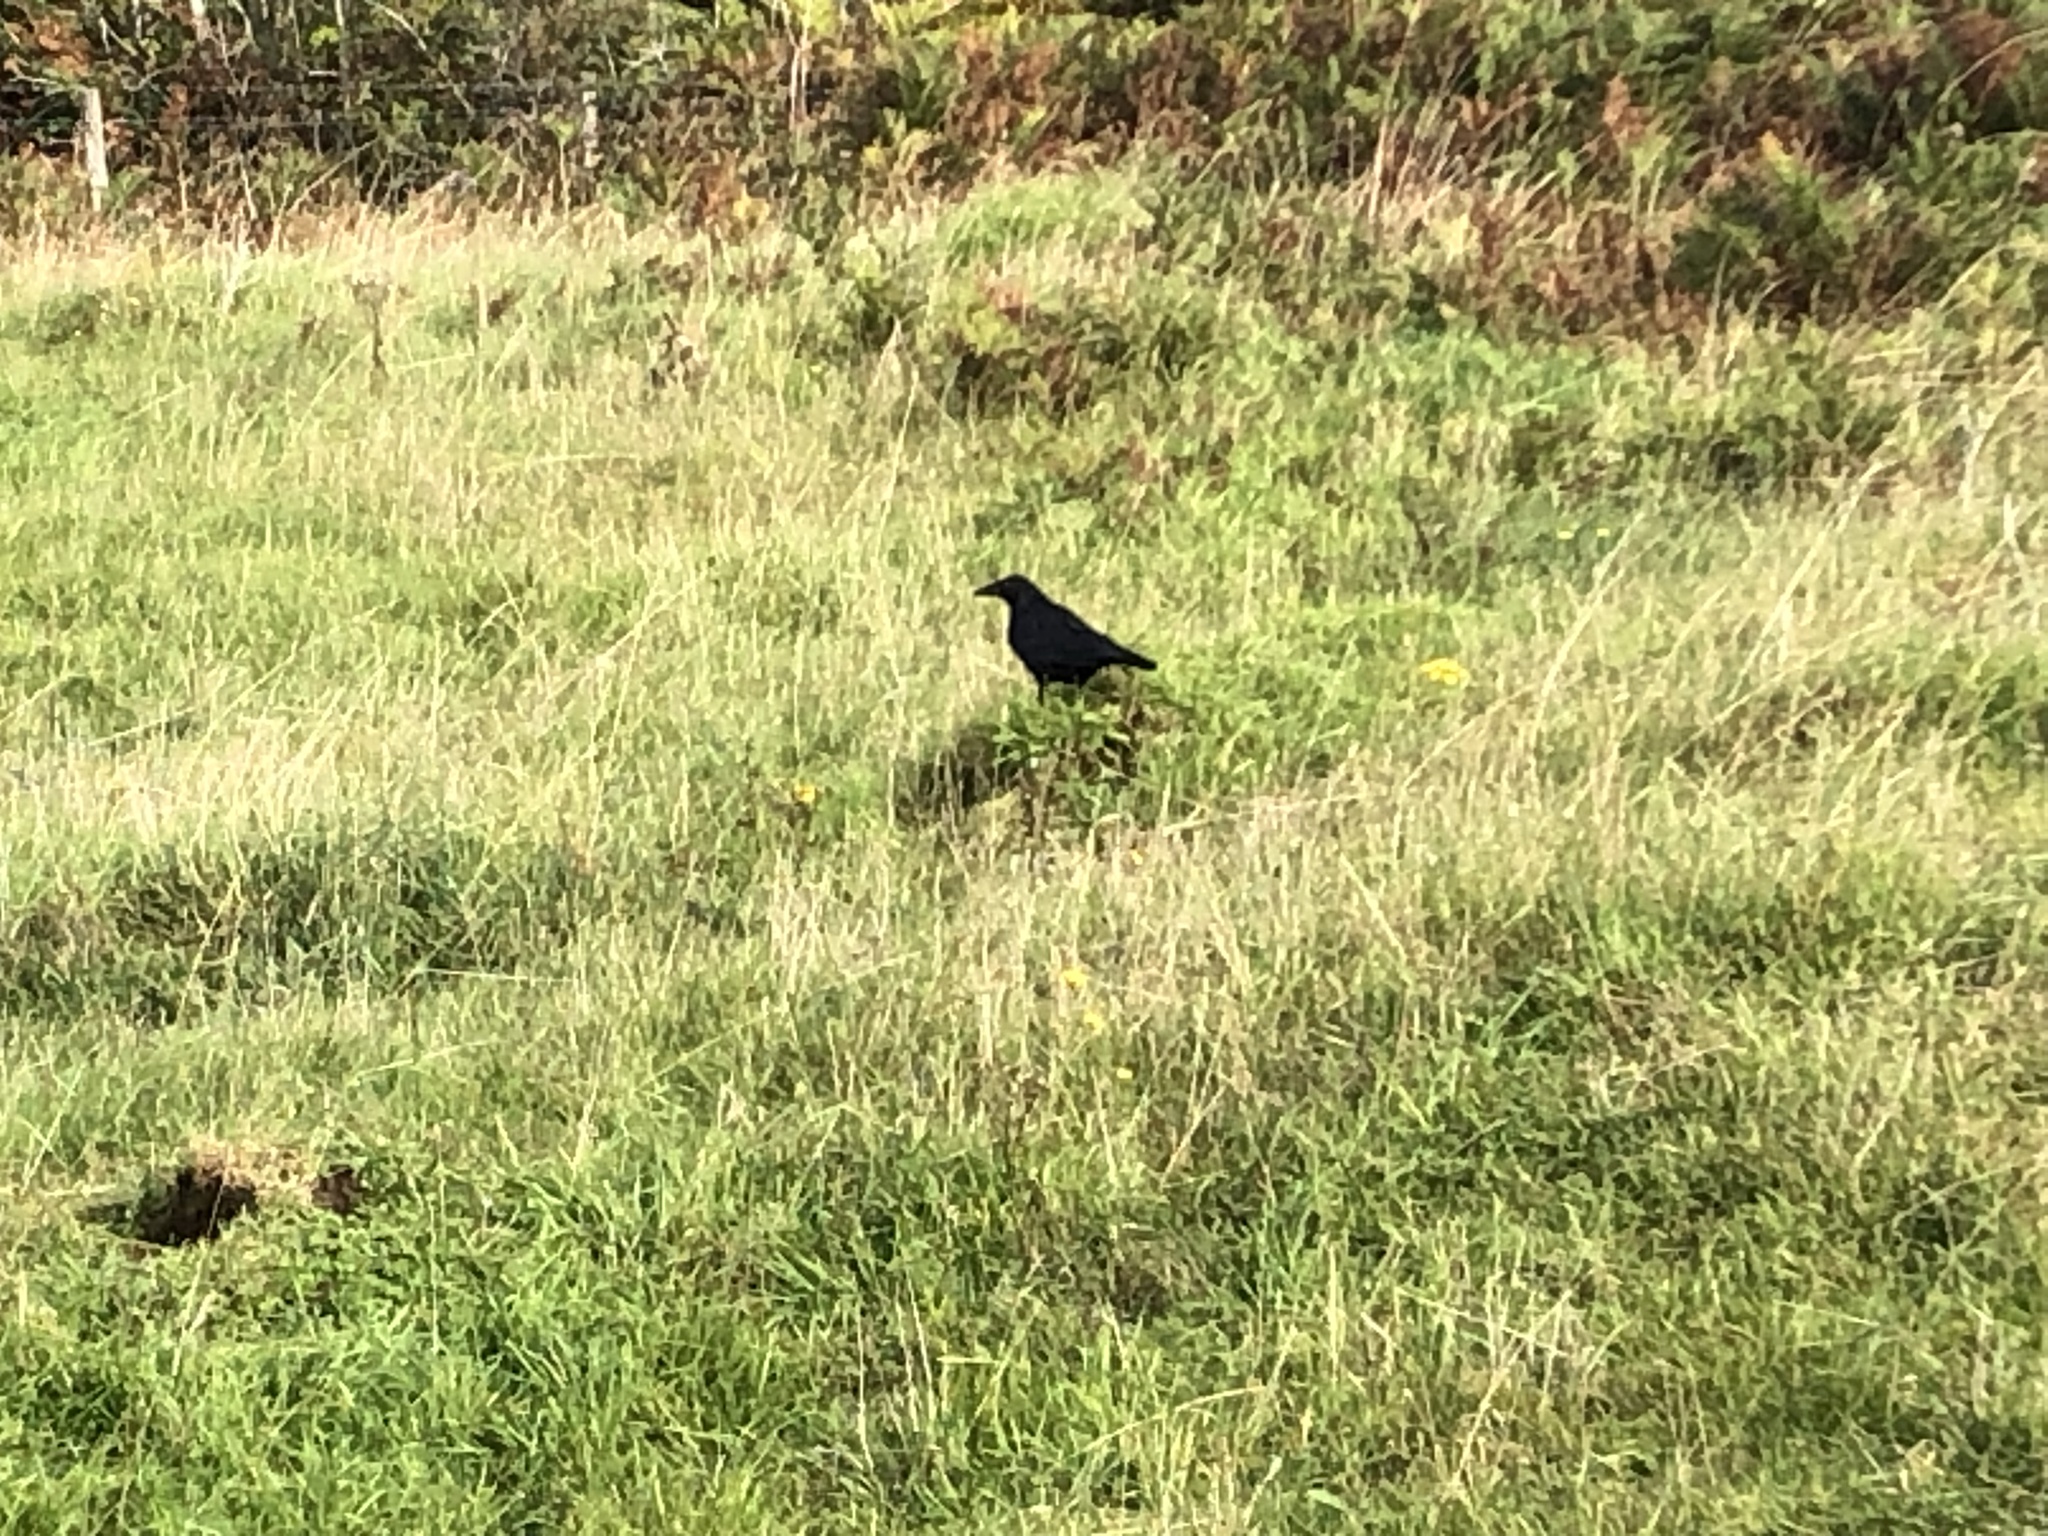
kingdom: Animalia
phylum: Chordata
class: Aves
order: Passeriformes
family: Corvidae
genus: Corvus
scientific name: Corvus corone
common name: Carrion crow
